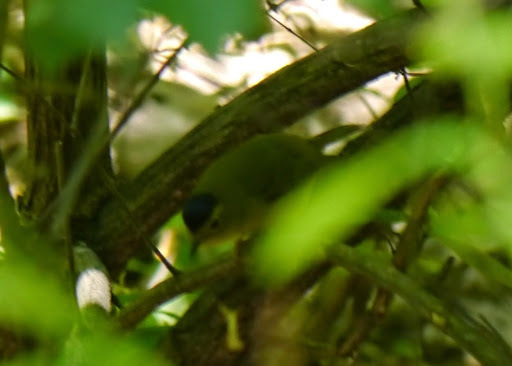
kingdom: Animalia
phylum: Chordata
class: Aves
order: Passeriformes
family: Parulidae
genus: Cardellina
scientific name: Cardellina pusilla
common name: Wilson's warbler
